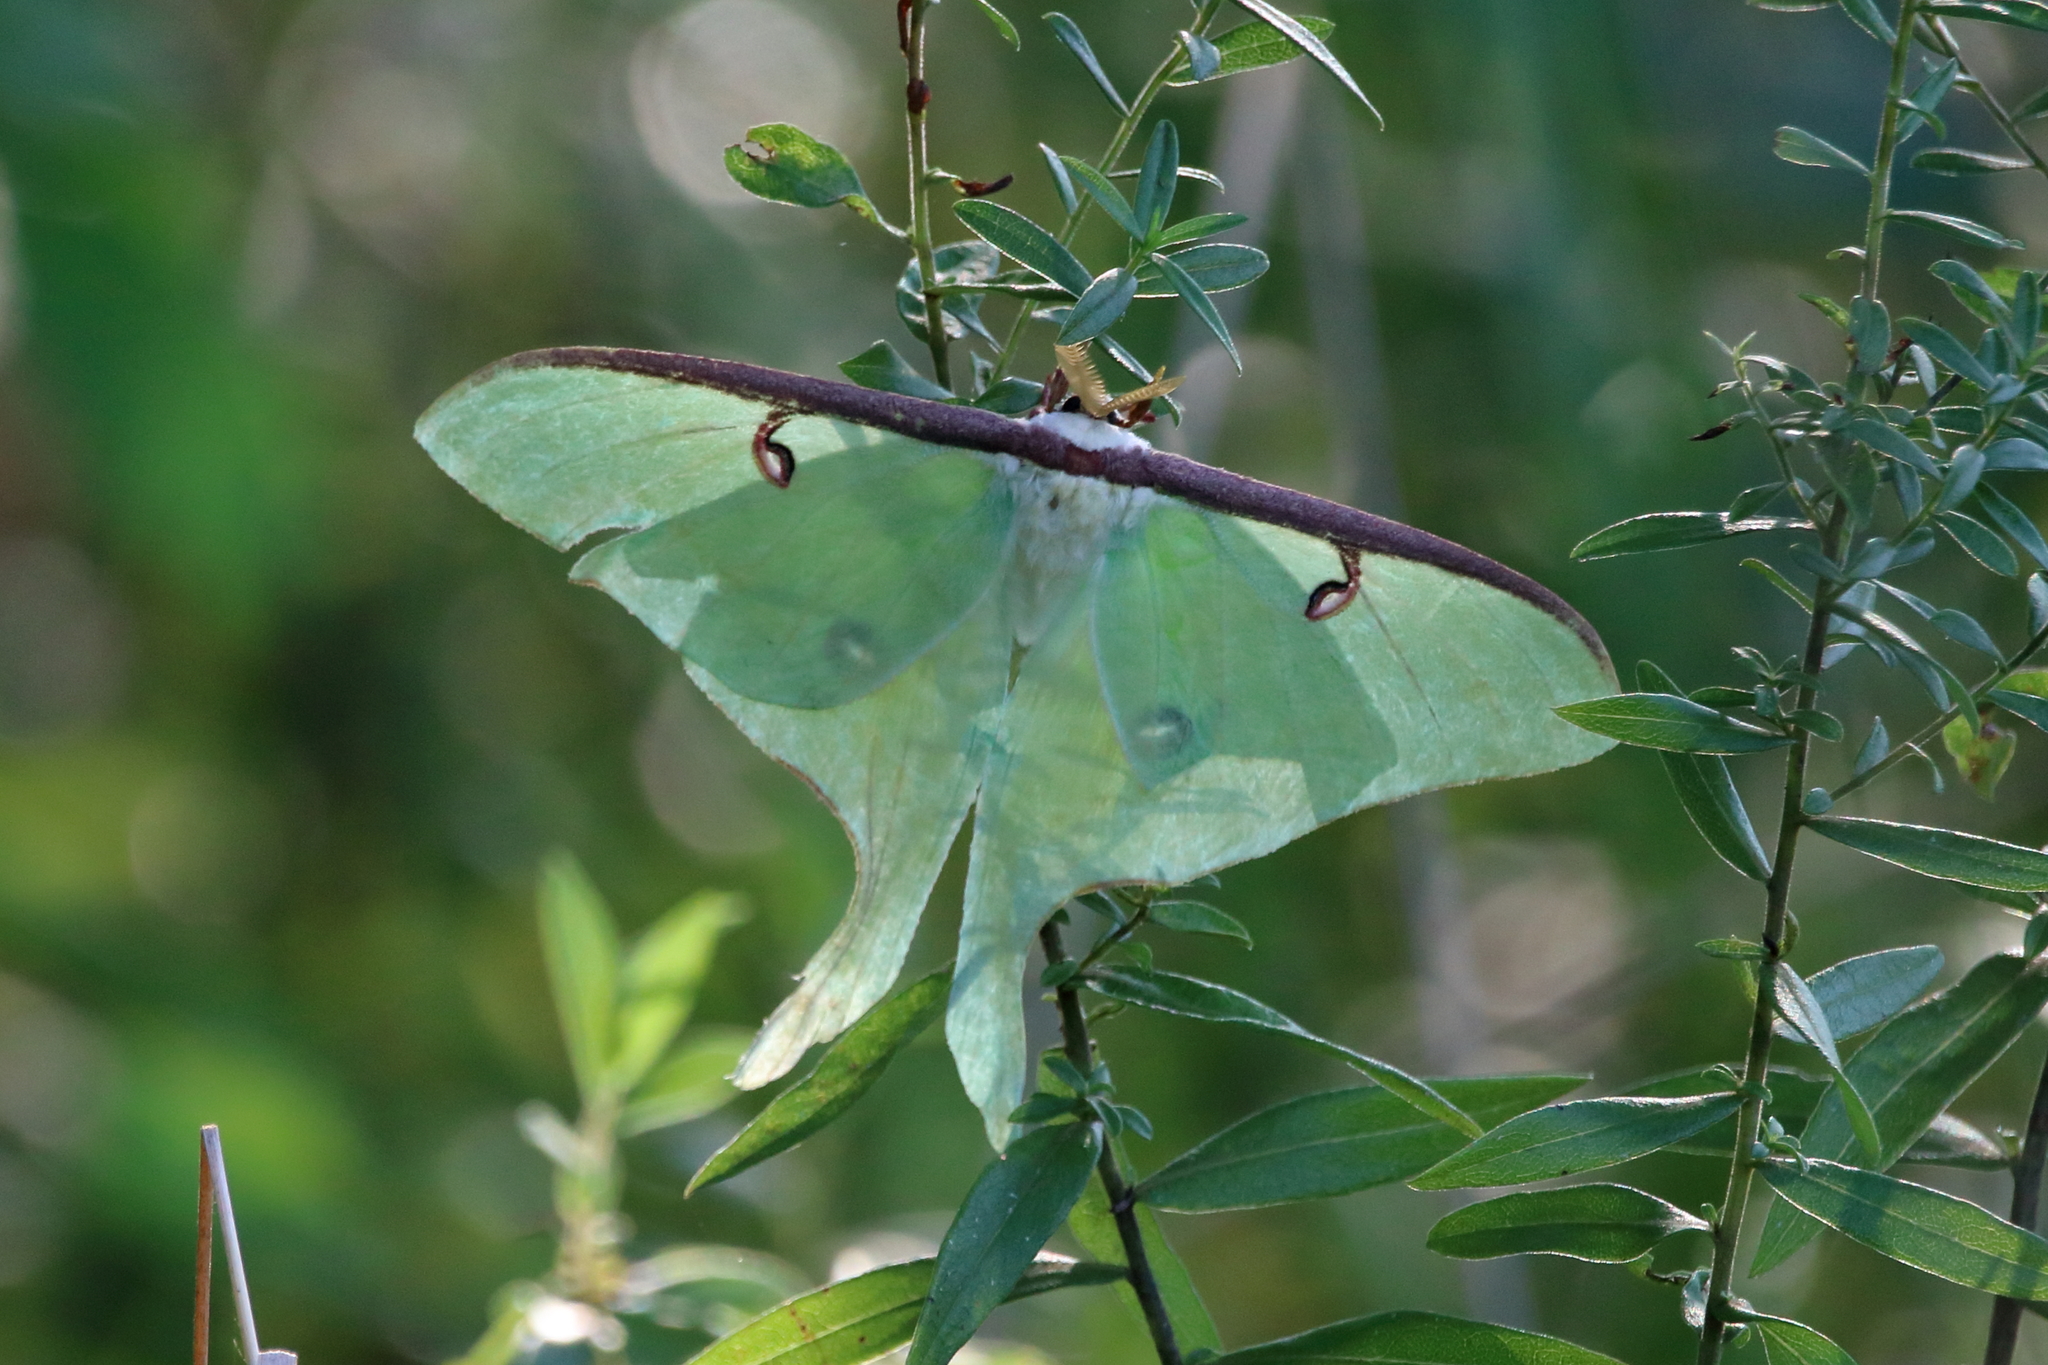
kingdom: Animalia
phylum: Arthropoda
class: Insecta
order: Lepidoptera
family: Saturniidae
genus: Actias
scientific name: Actias luna
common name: Luna moth
